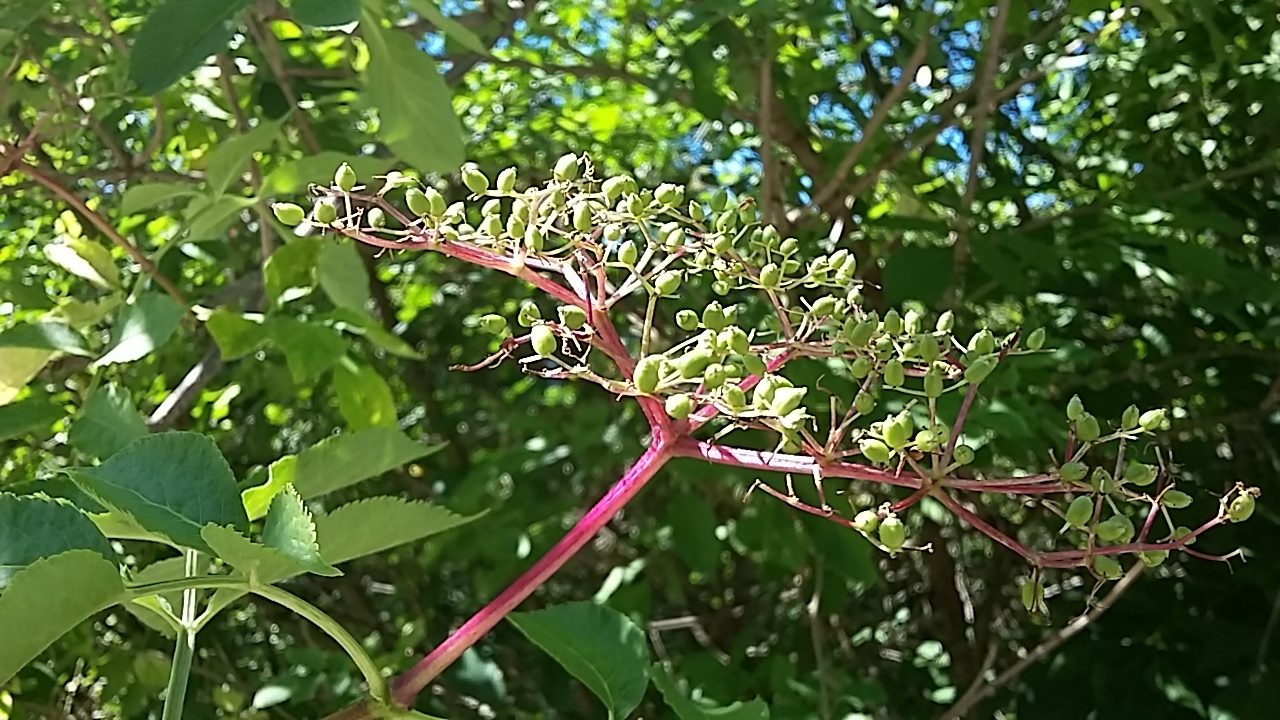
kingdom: Plantae
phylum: Tracheophyta
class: Magnoliopsida
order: Dipsacales
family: Viburnaceae
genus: Sambucus
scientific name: Sambucus nigra
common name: Elder
